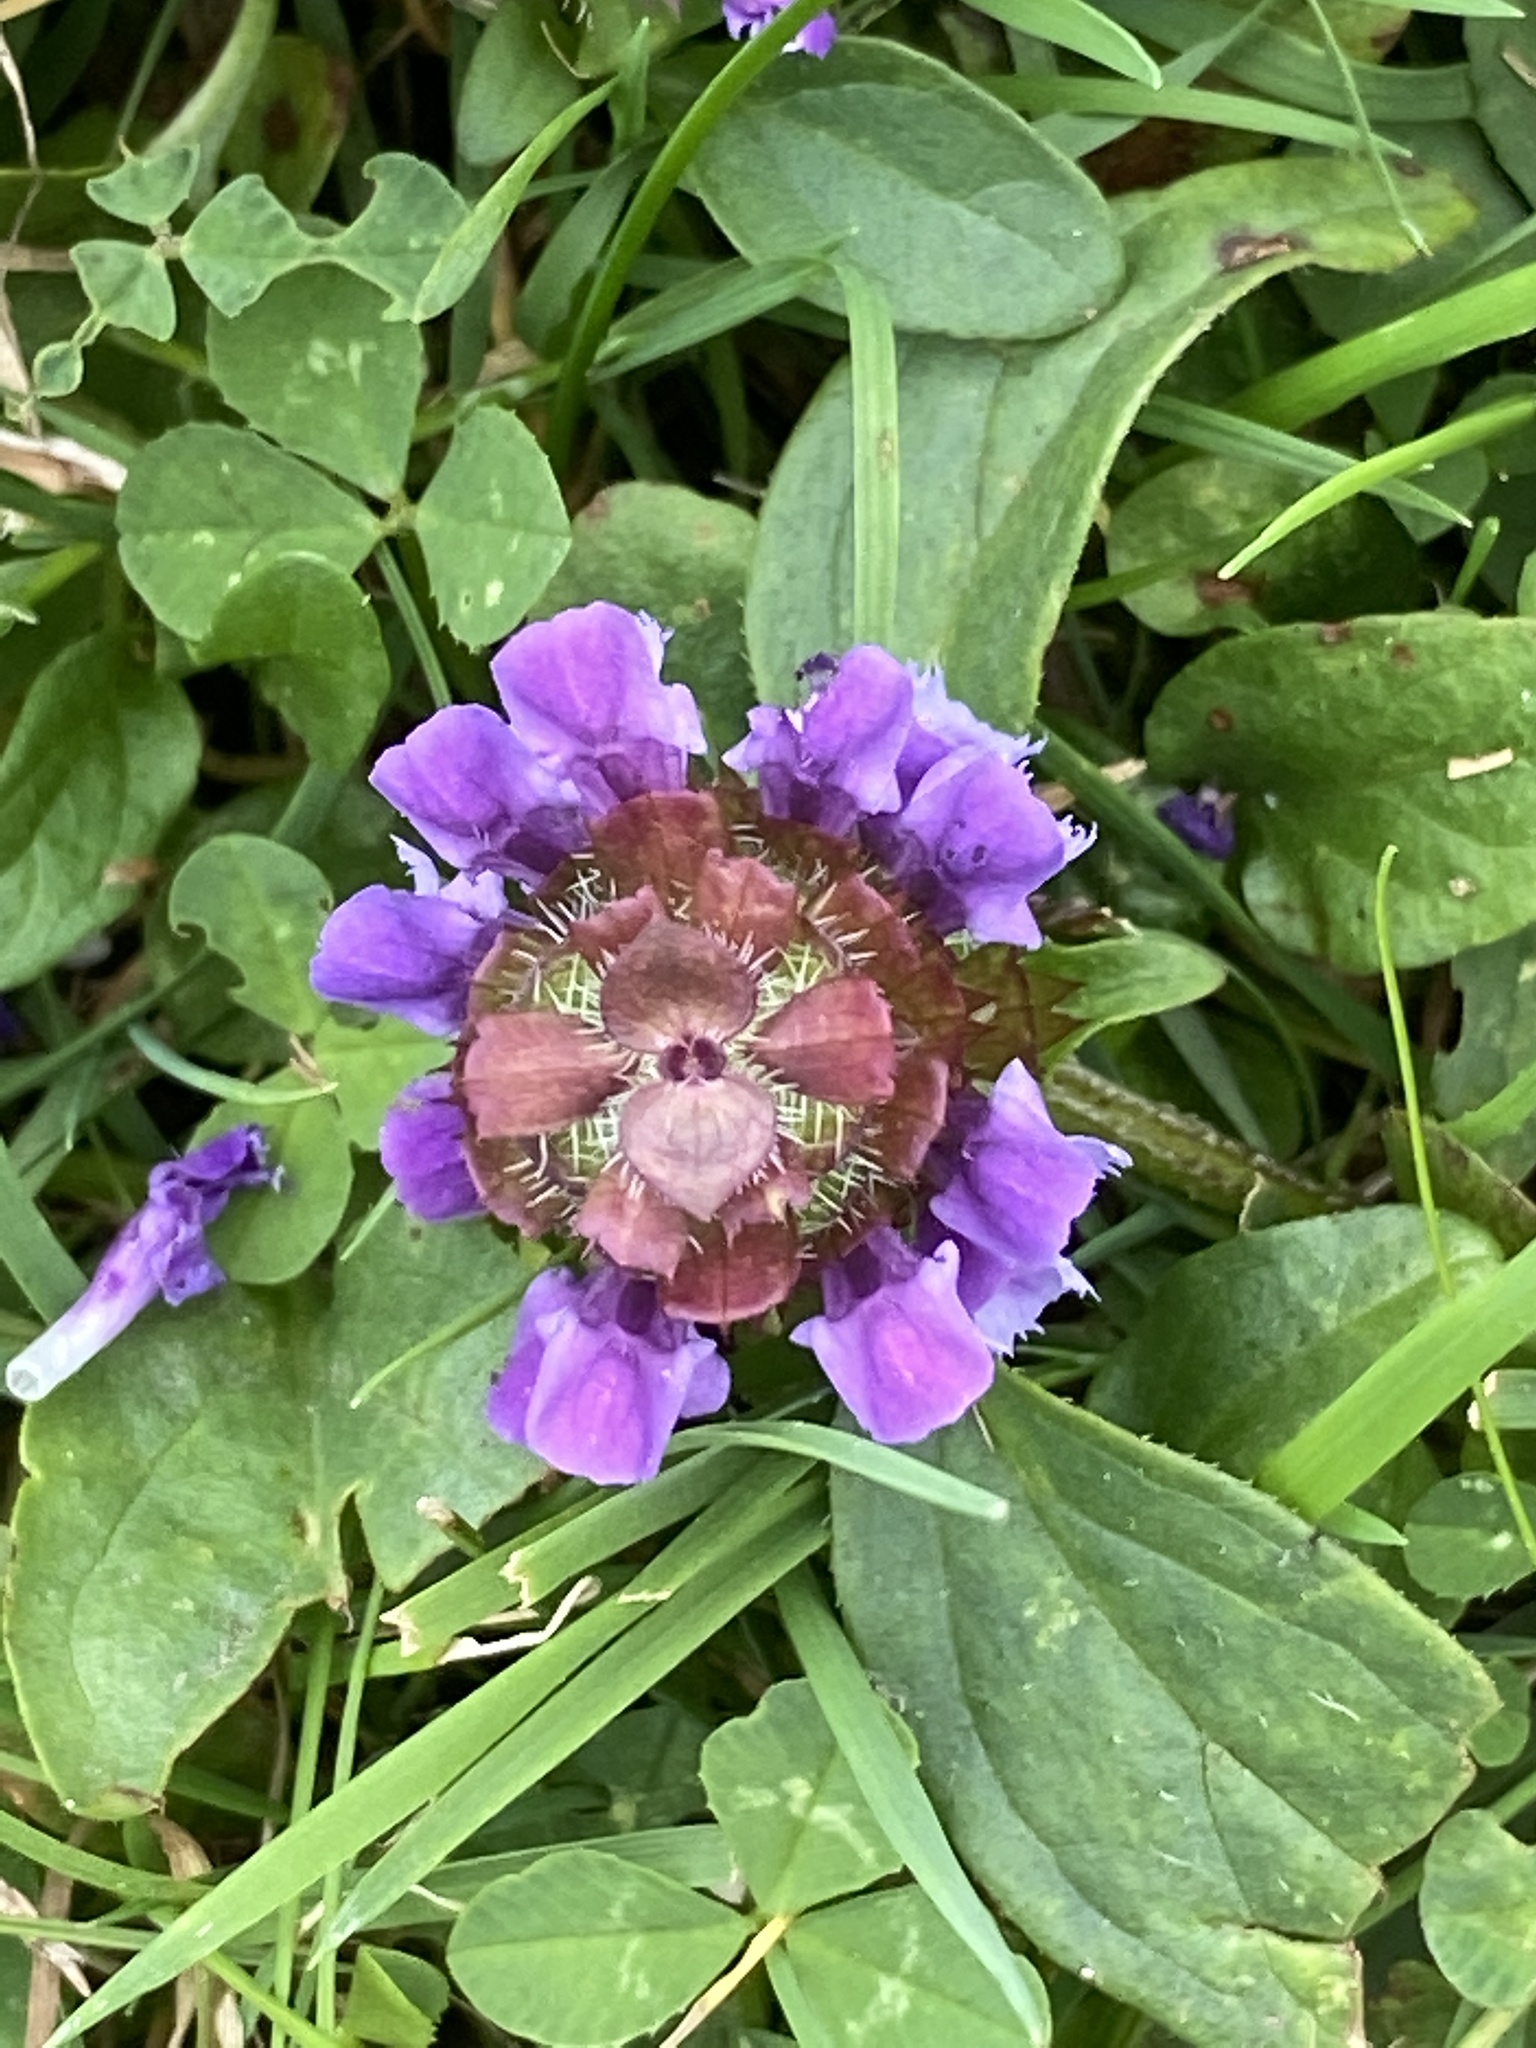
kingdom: Plantae
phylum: Tracheophyta
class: Magnoliopsida
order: Lamiales
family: Lamiaceae
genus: Prunella
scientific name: Prunella vulgaris
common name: Heal-all
